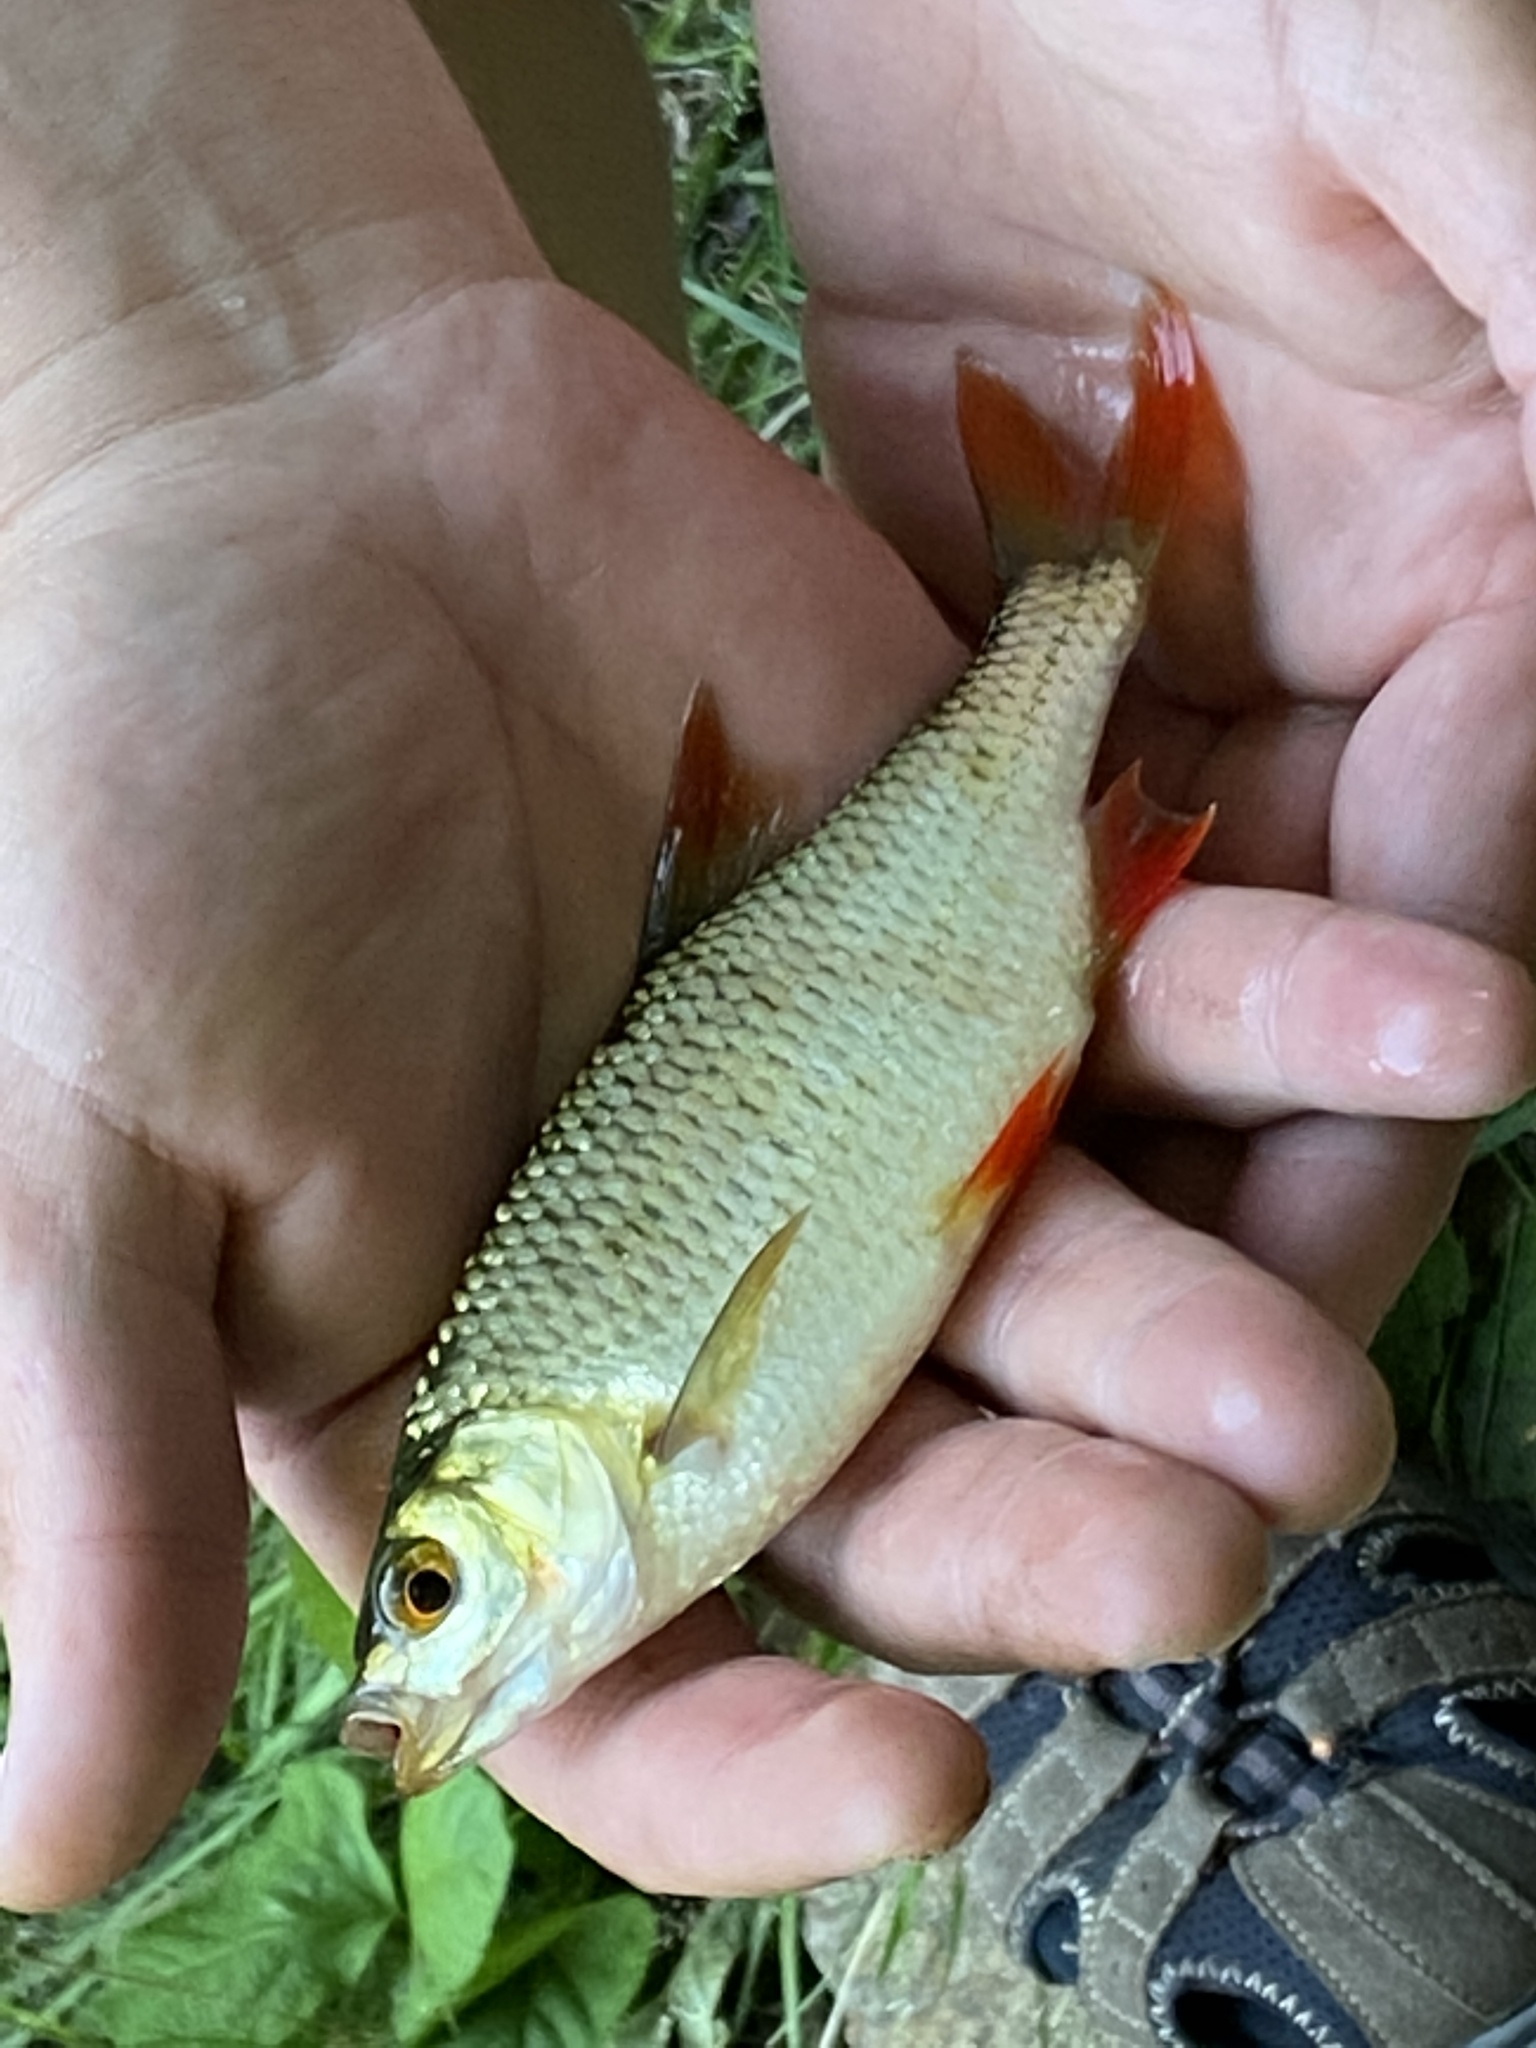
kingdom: Animalia
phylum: Chordata
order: Cypriniformes
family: Cyprinidae
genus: Scardinius
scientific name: Scardinius erythrophthalmus
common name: Rudd
